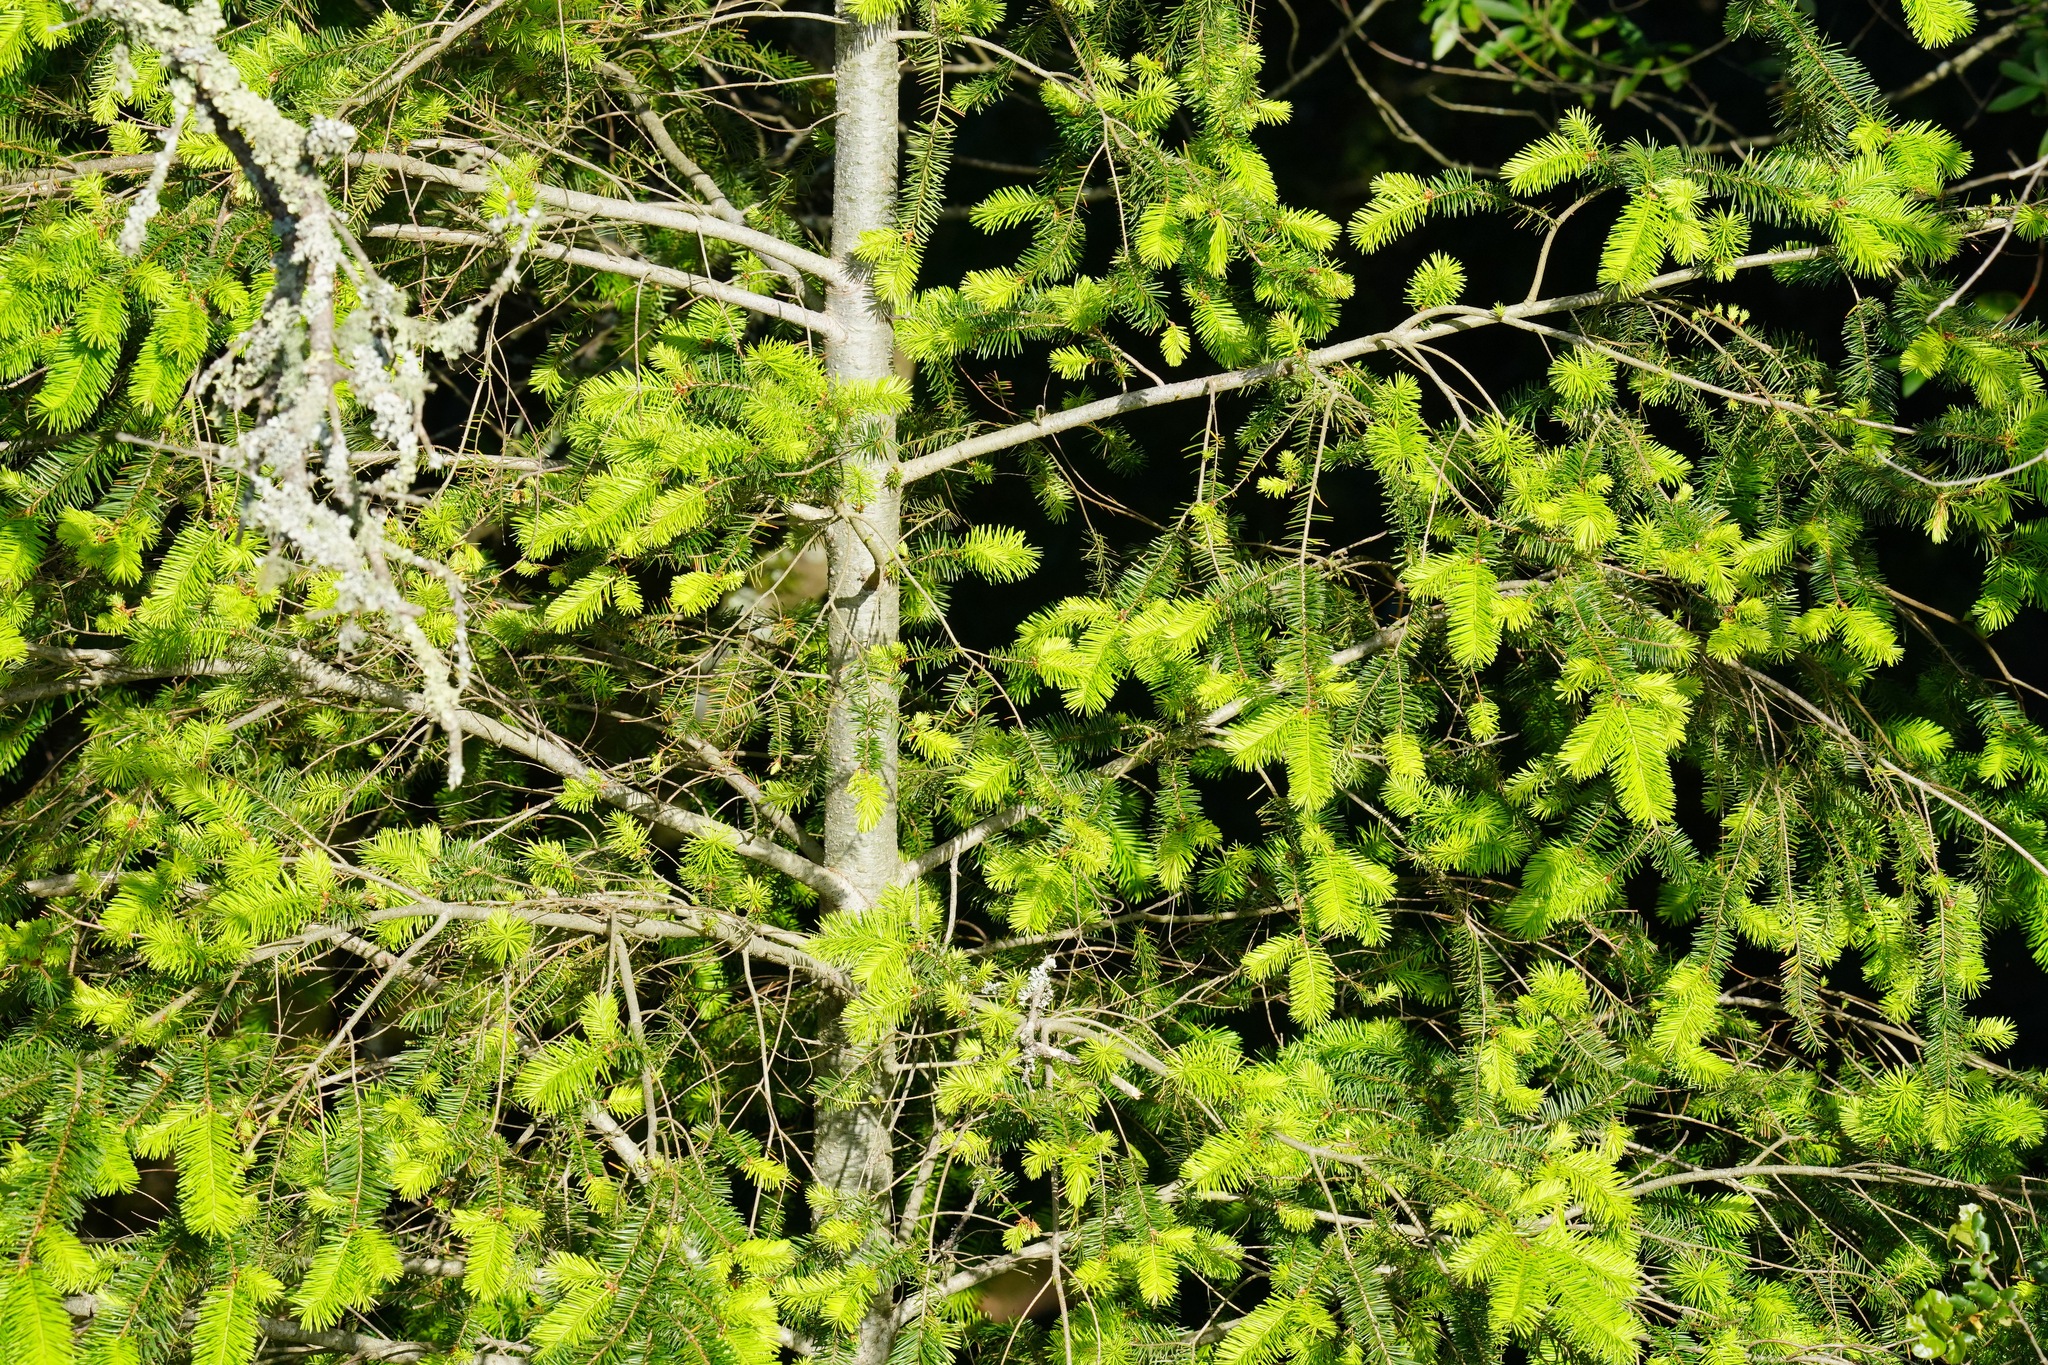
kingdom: Plantae
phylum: Tracheophyta
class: Pinopsida
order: Pinales
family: Pinaceae
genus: Pseudotsuga
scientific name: Pseudotsuga menziesii
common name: Douglas fir
